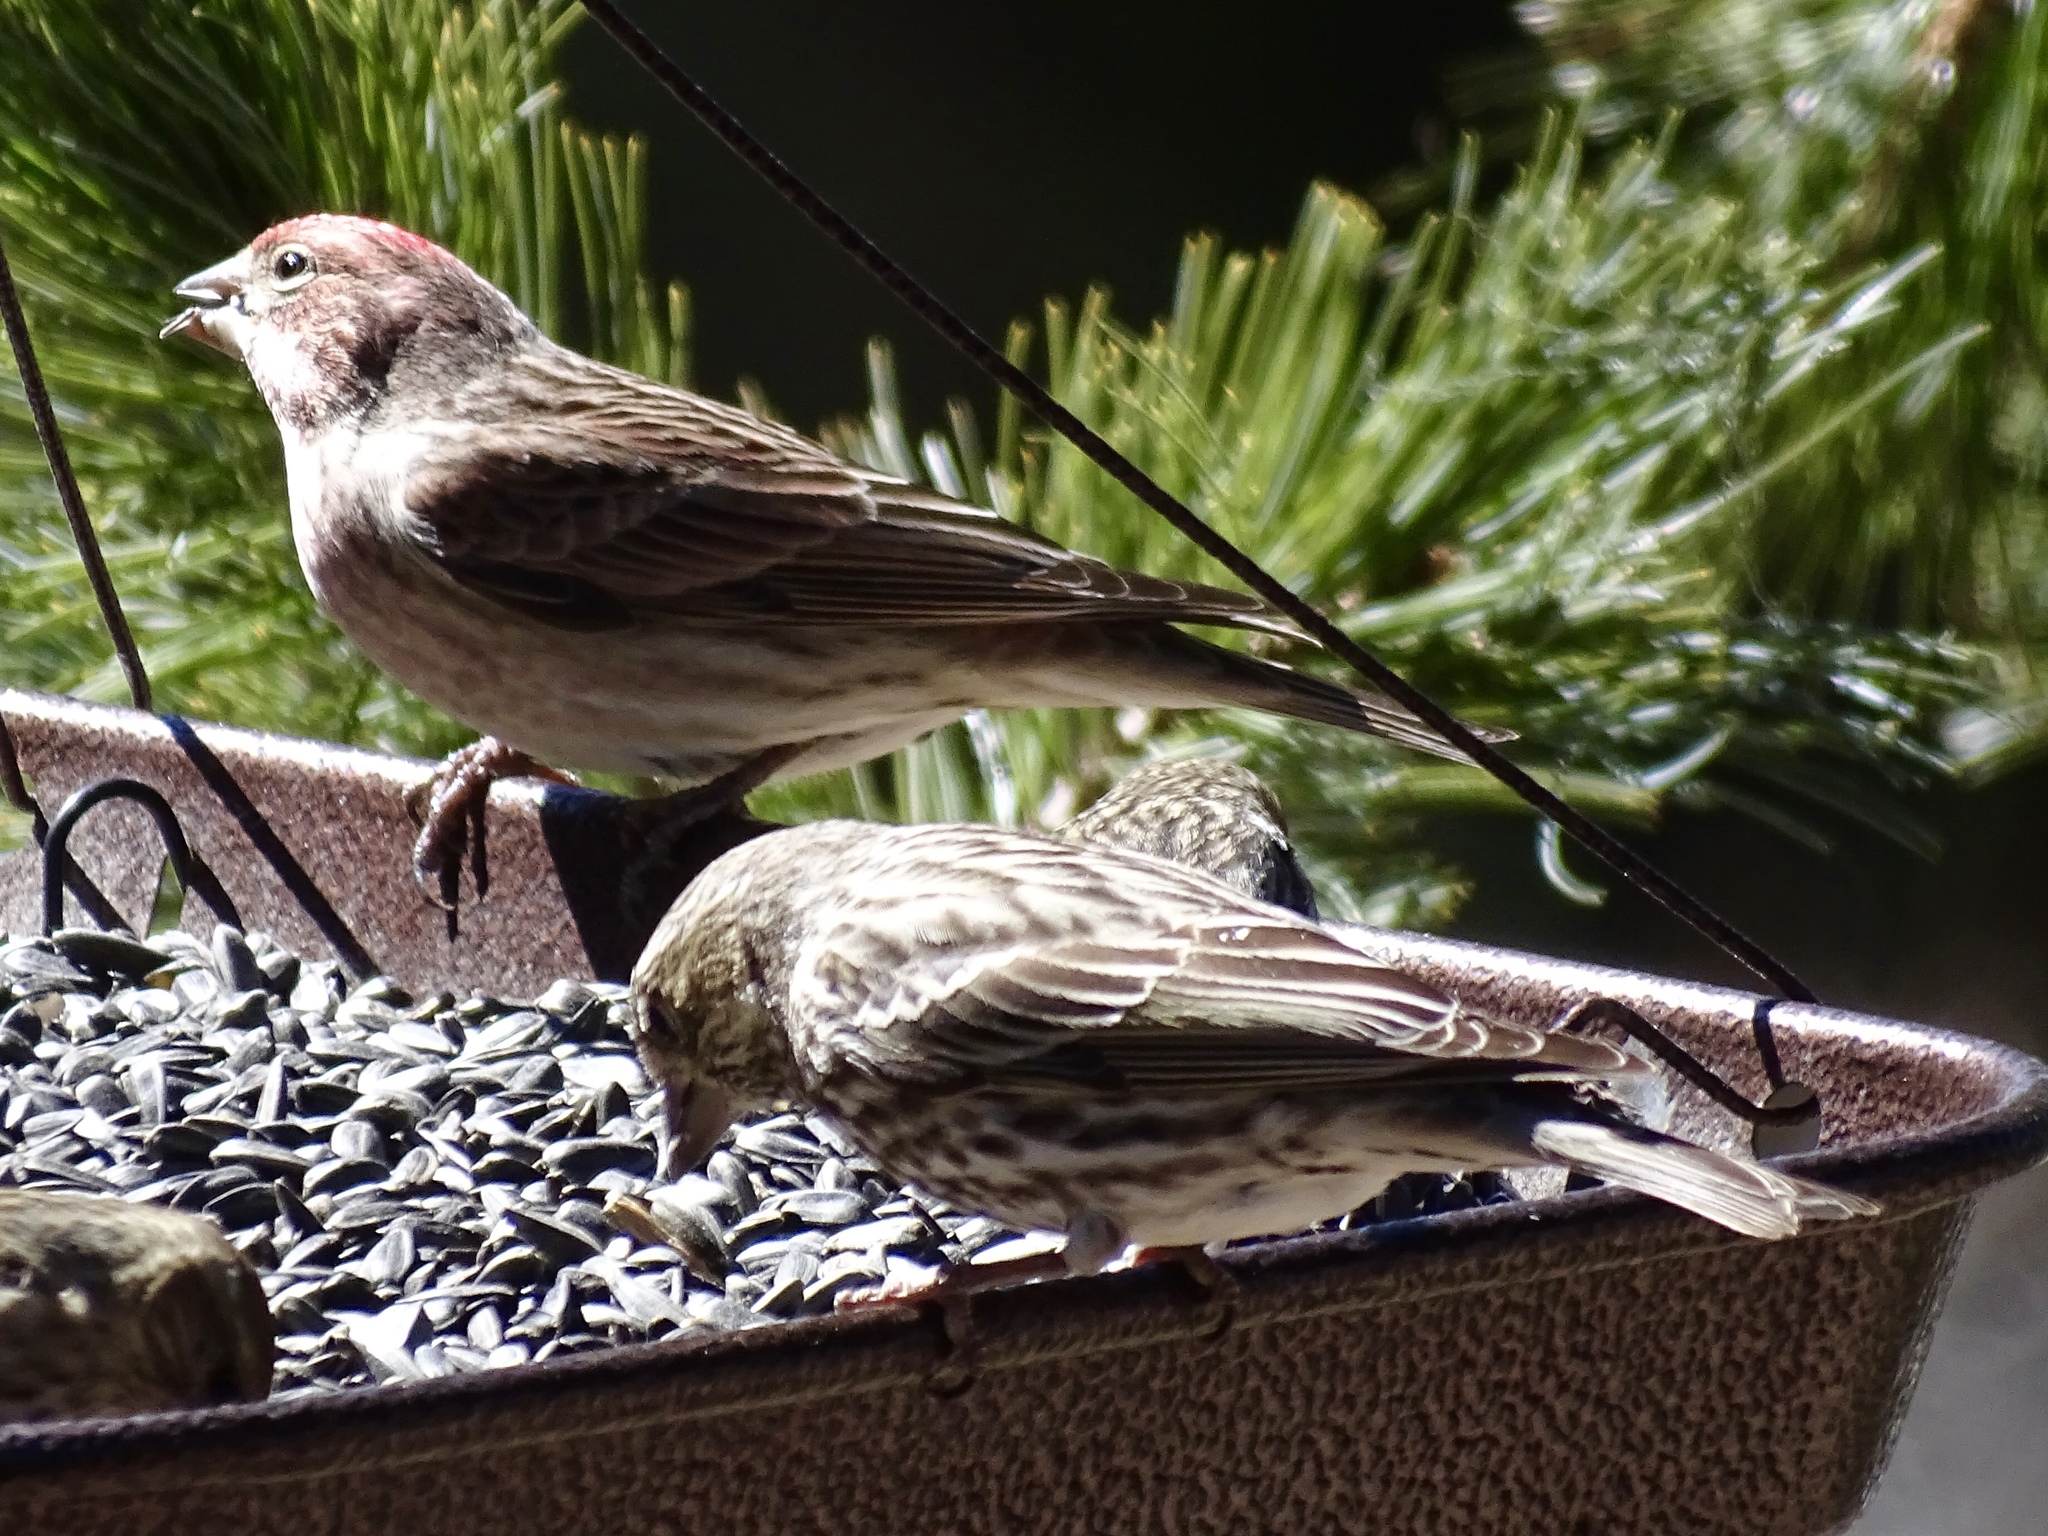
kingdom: Animalia
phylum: Chordata
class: Aves
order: Passeriformes
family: Fringillidae
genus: Haemorhous
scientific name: Haemorhous cassinii
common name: Cassin's finch
